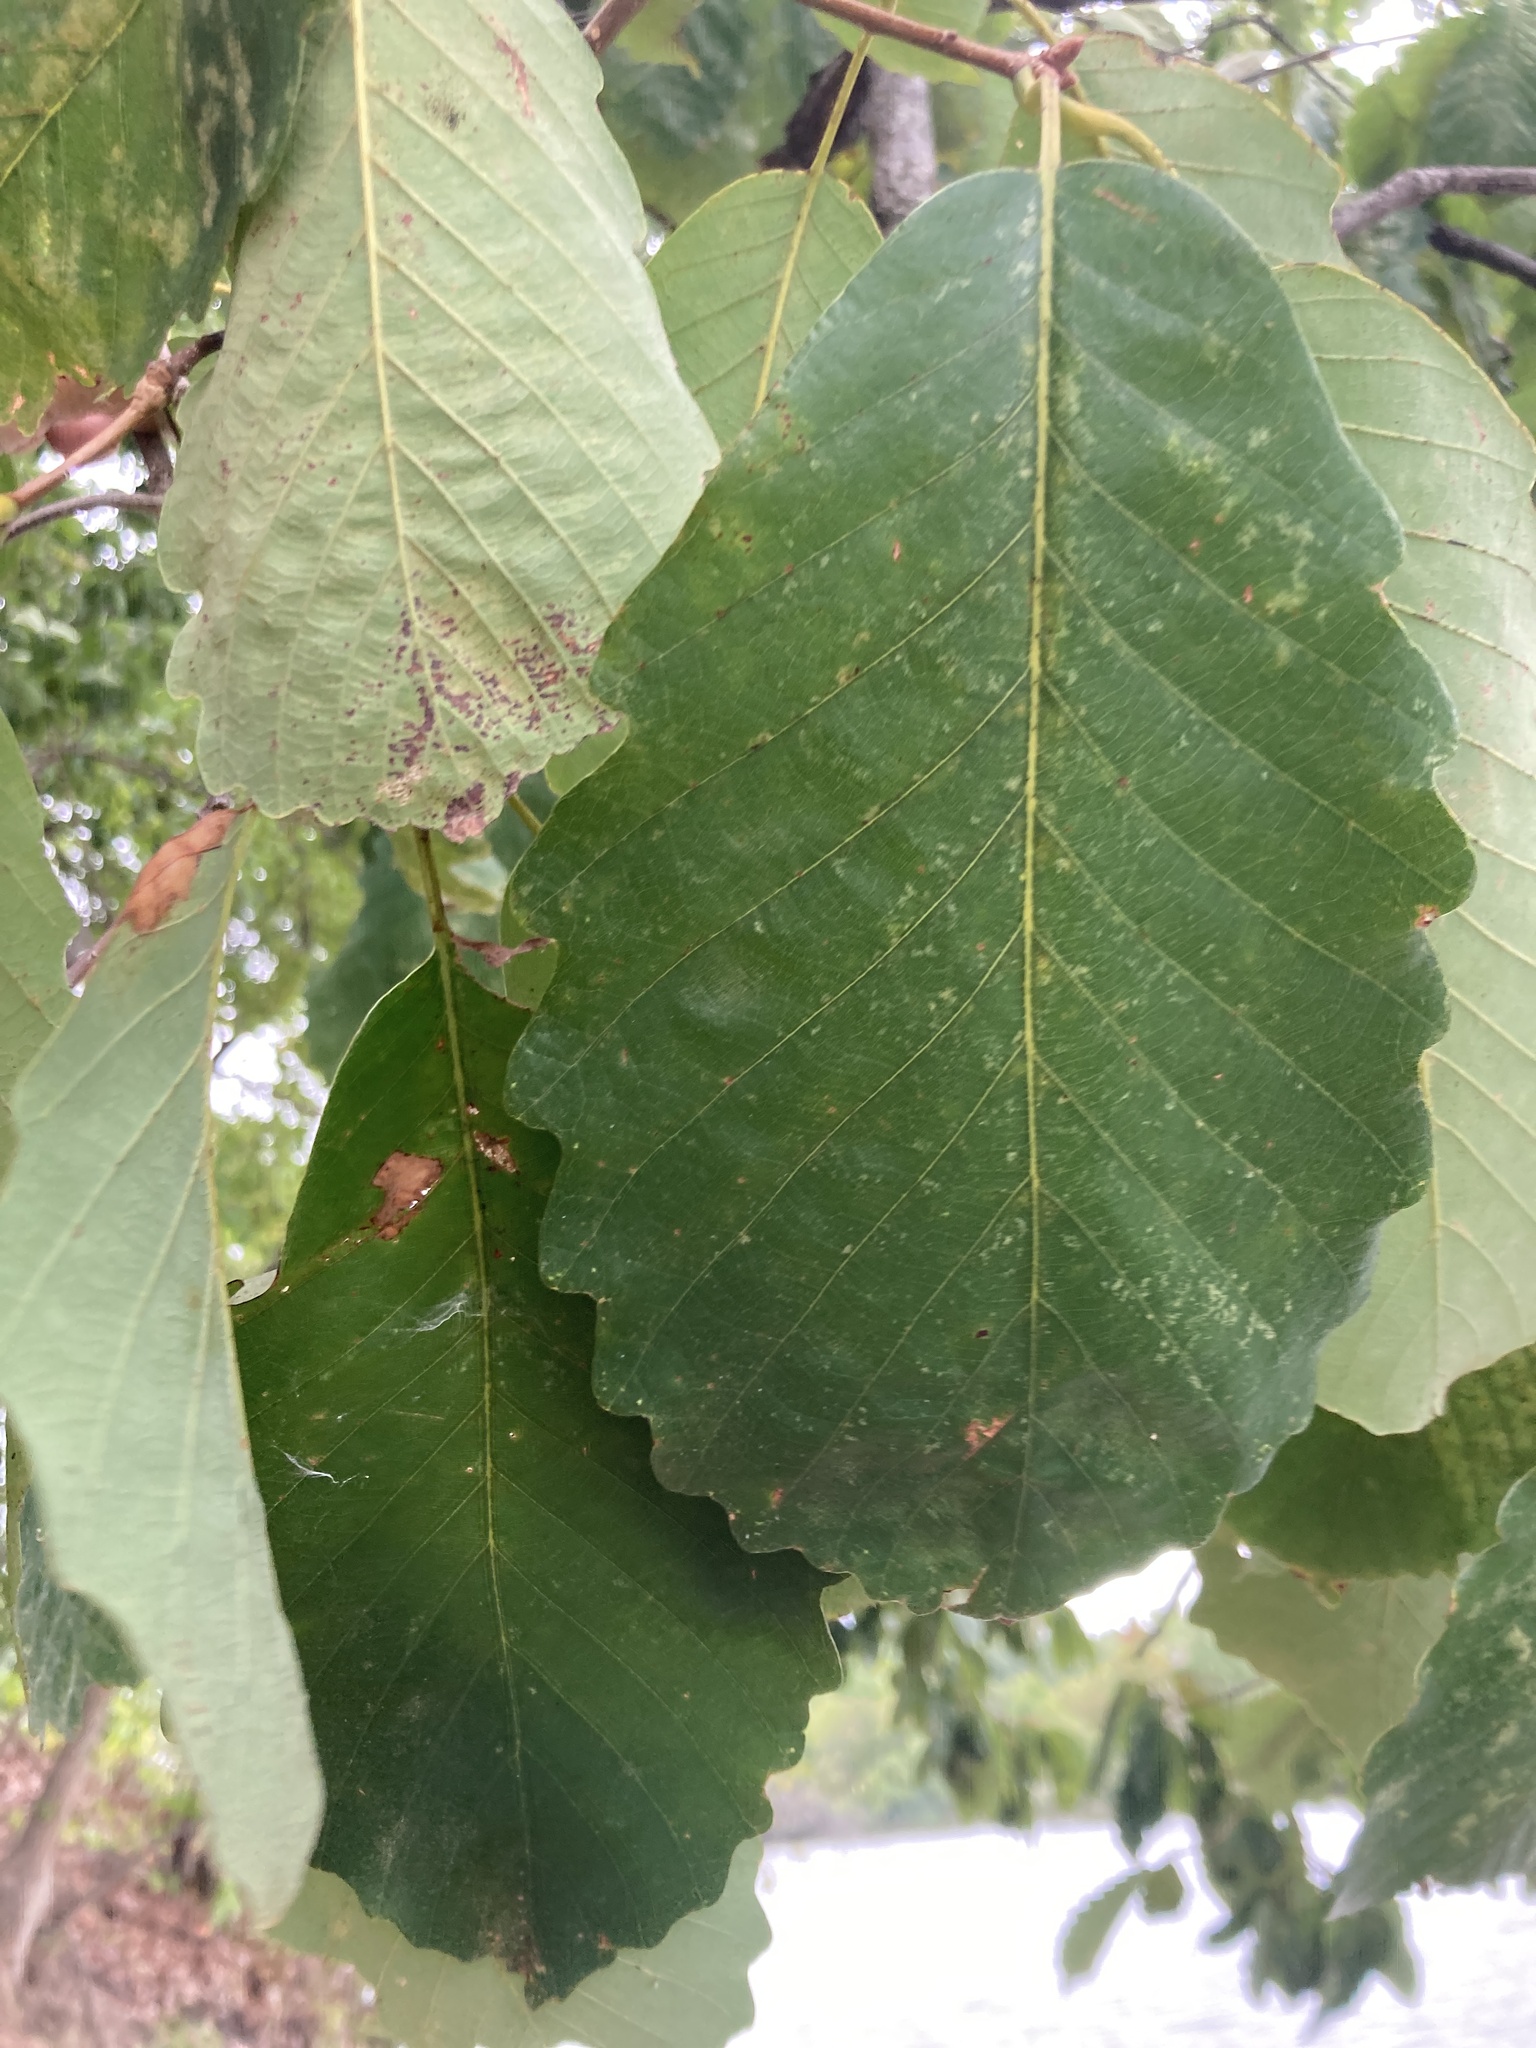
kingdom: Plantae
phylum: Tracheophyta
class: Magnoliopsida
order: Fagales
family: Fagaceae
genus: Quercus
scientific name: Quercus montana
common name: Chestnut oak
